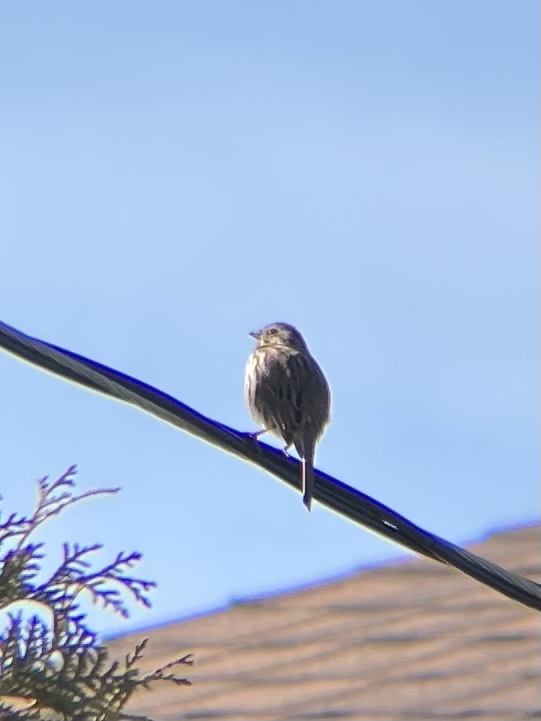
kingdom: Animalia
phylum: Chordata
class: Aves
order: Passeriformes
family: Passerellidae
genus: Melospiza
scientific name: Melospiza melodia
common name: Song sparrow
